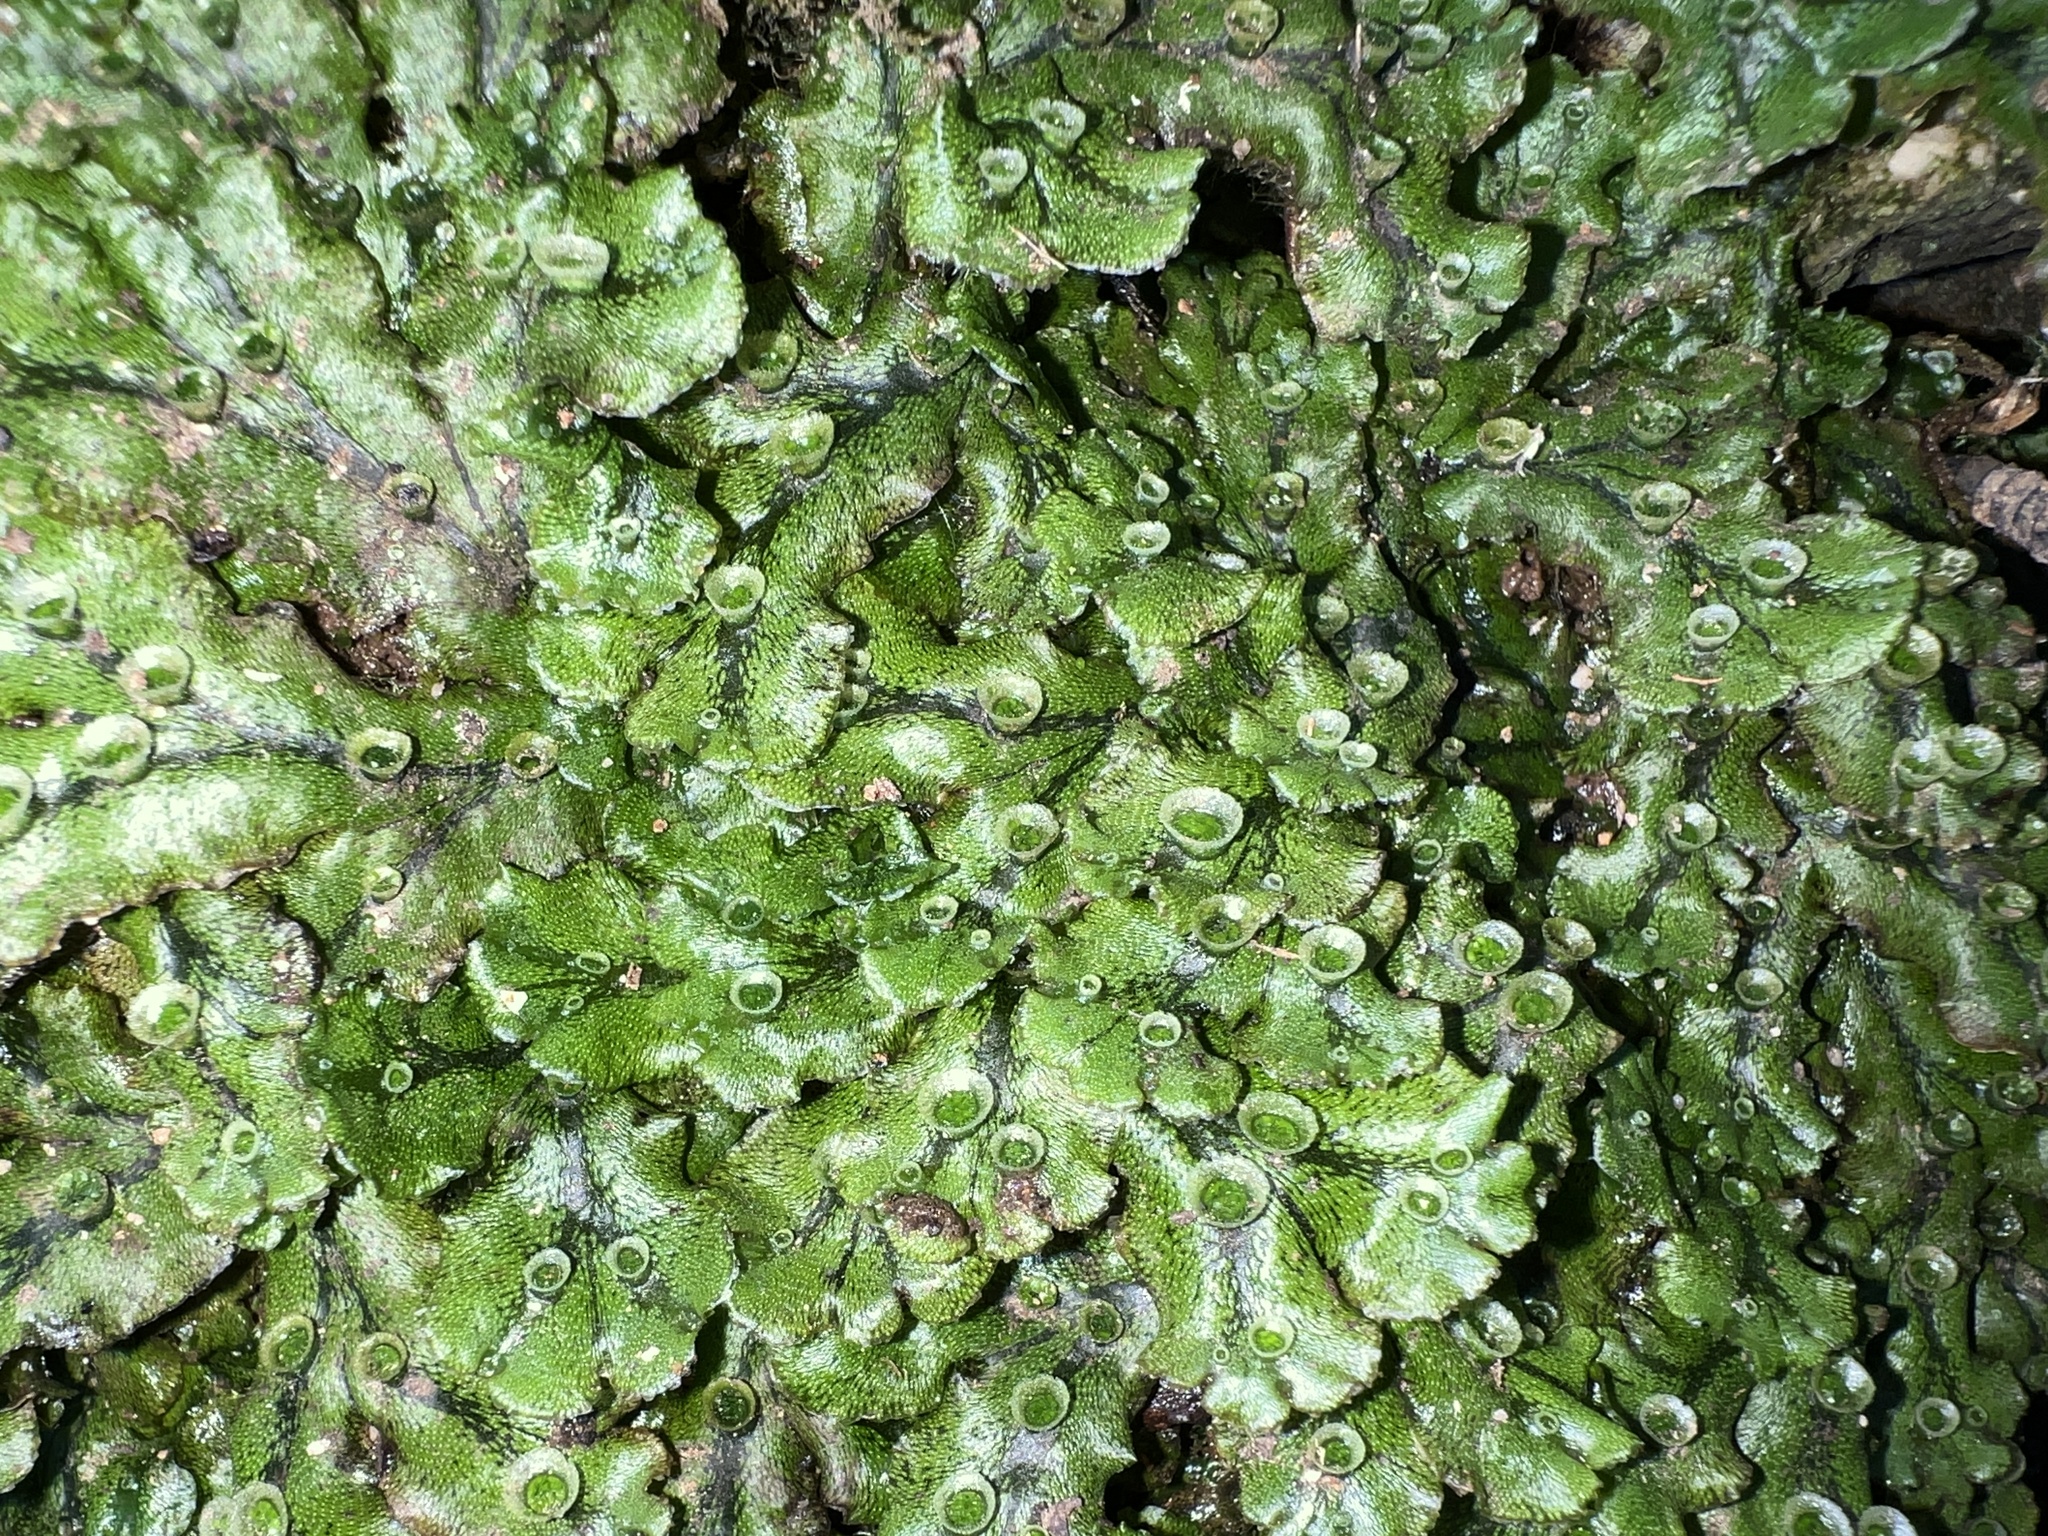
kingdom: Plantae
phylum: Marchantiophyta
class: Marchantiopsida
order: Marchantiales
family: Marchantiaceae
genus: Marchantia
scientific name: Marchantia polymorpha
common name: Common liverwort
